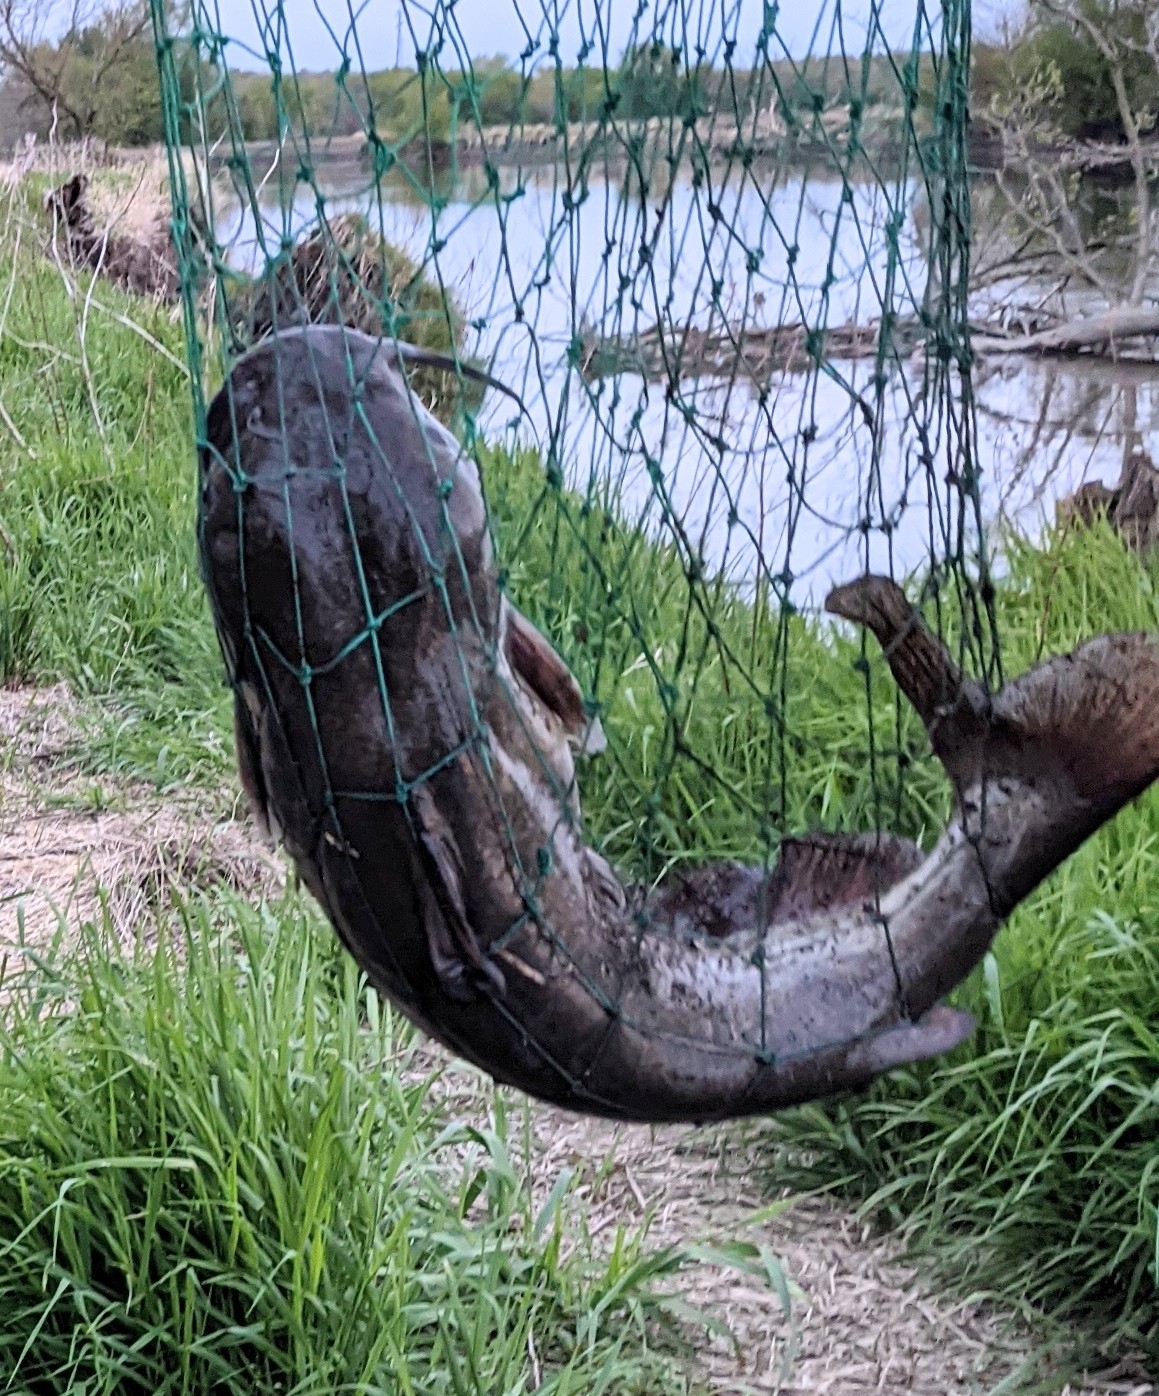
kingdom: Animalia
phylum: Chordata
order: Siluriformes
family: Ictaluridae
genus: Ictalurus
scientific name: Ictalurus punctatus
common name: Channel catfish
